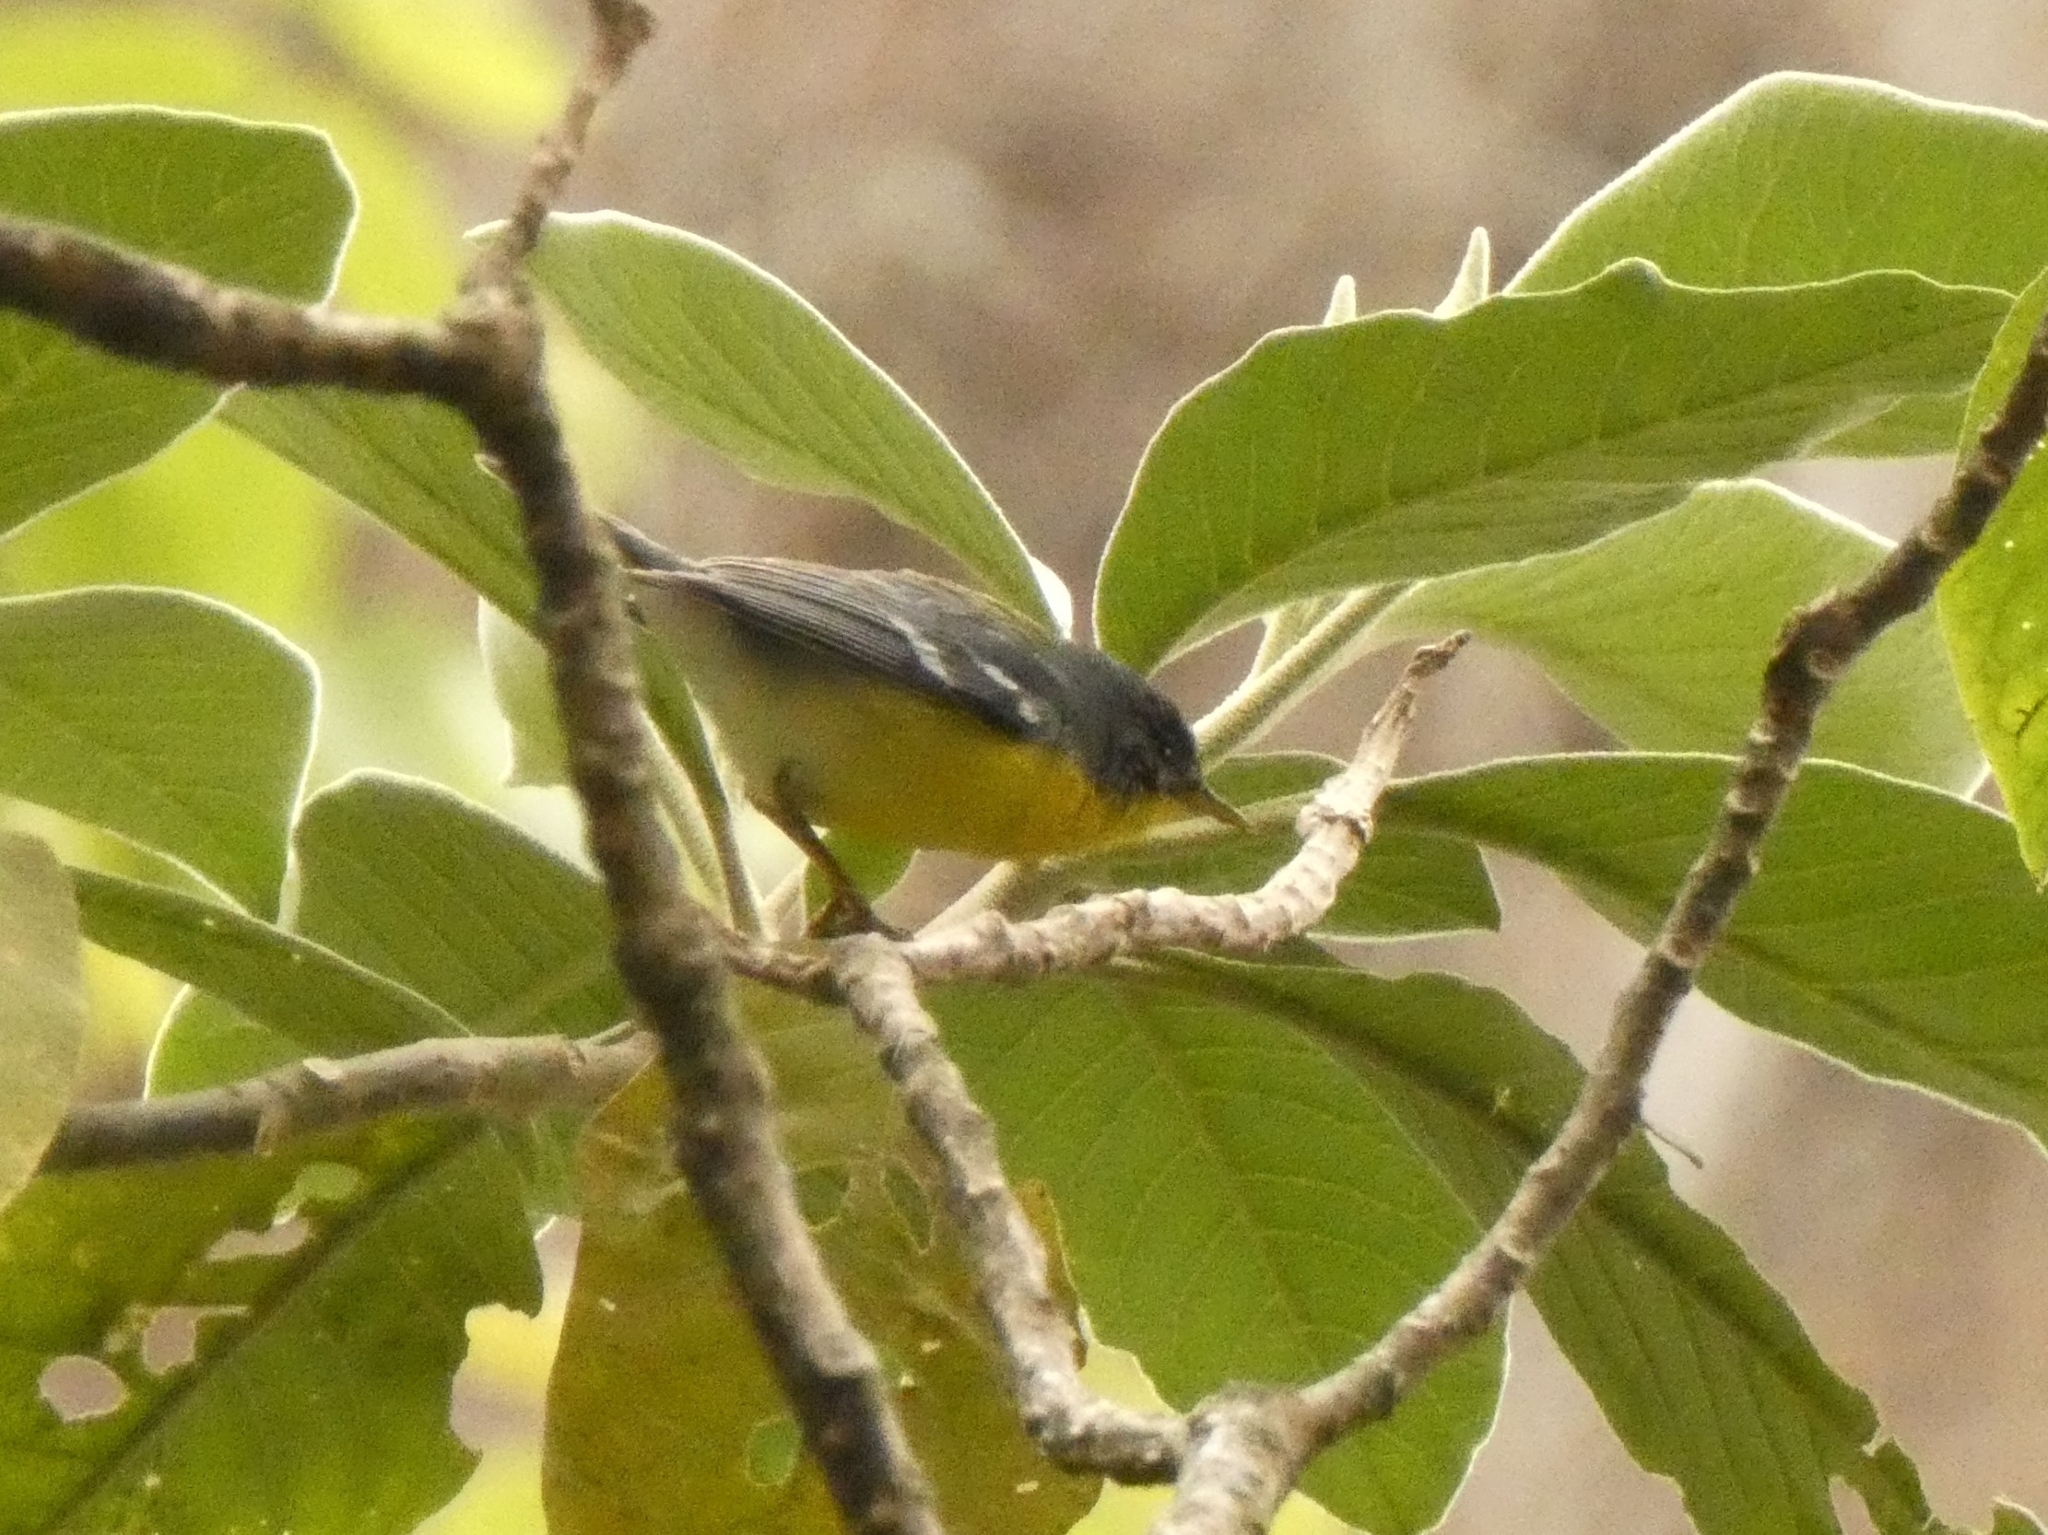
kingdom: Animalia
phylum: Chordata
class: Aves
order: Passeriformes
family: Parulidae
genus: Setophaga
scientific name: Setophaga pitiayumi
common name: Tropical parula
